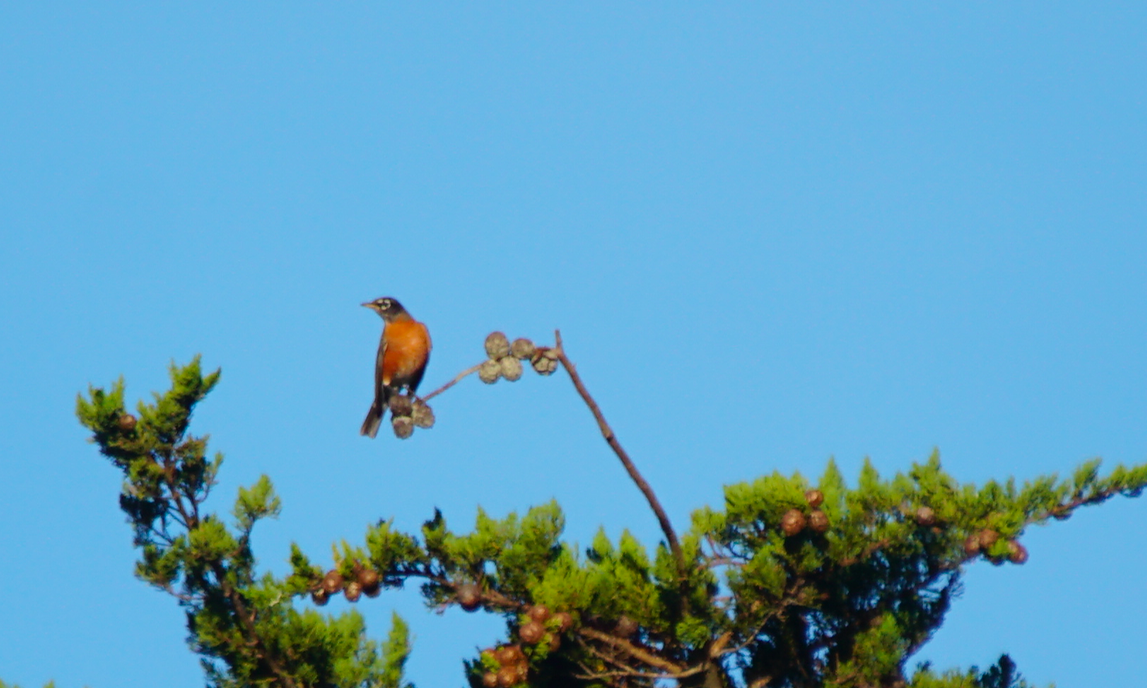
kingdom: Animalia
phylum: Chordata
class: Aves
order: Passeriformes
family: Turdidae
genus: Turdus
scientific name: Turdus migratorius
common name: American robin
